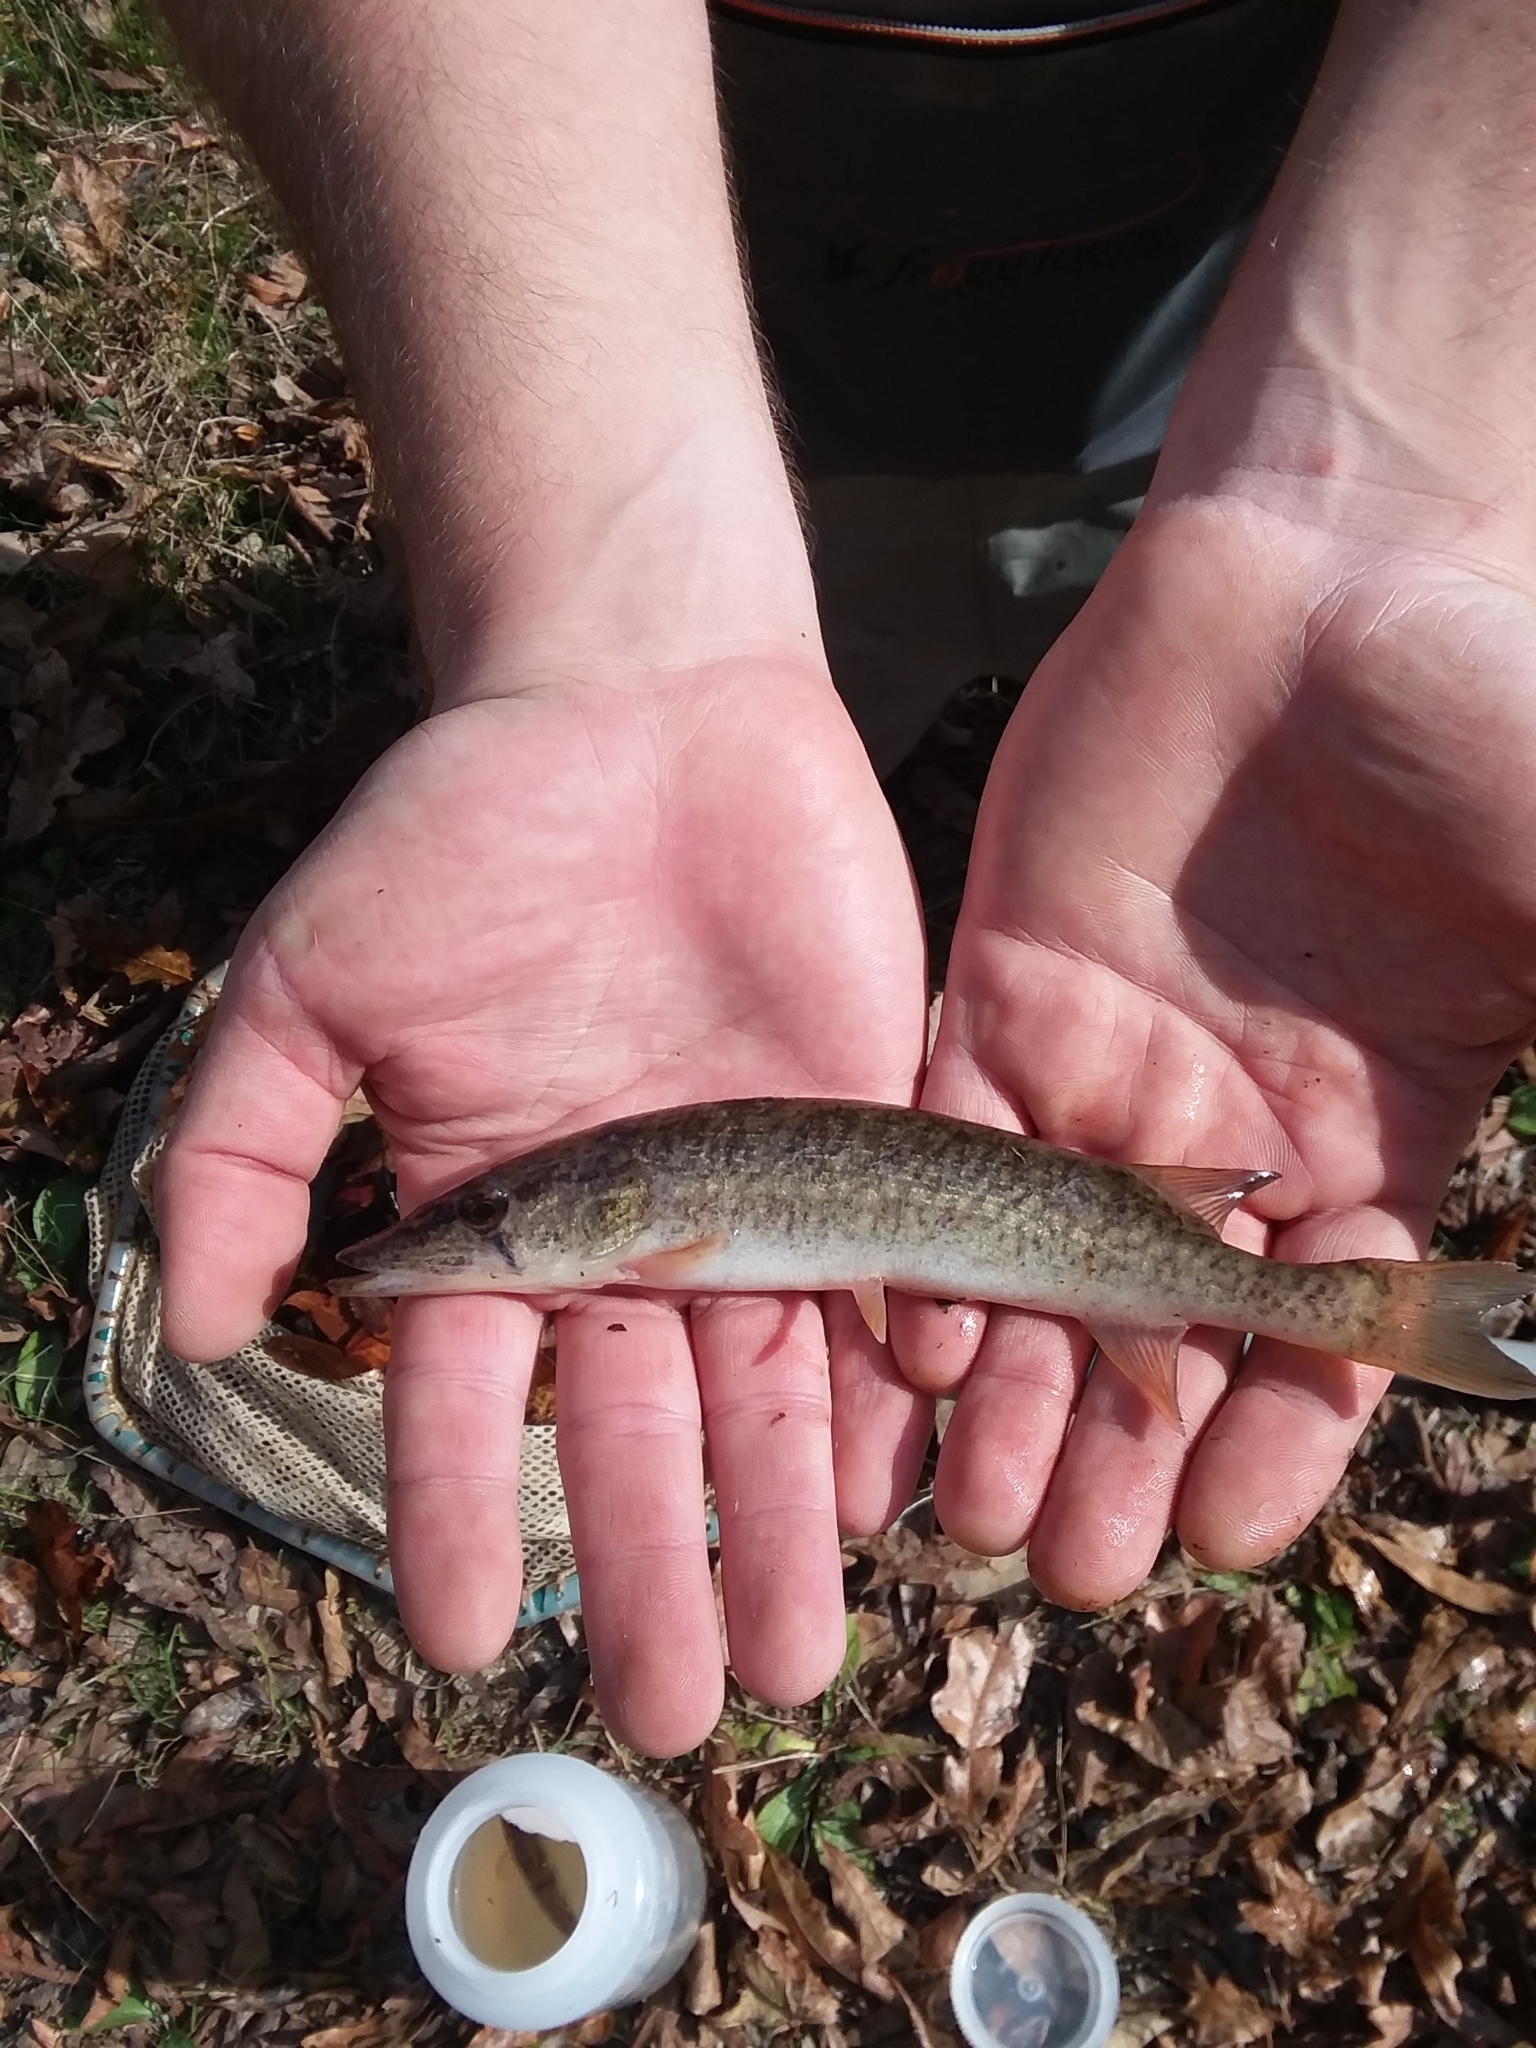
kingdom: Animalia
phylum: Chordata
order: Esociformes
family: Esocidae
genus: Esox
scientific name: Esox americanus
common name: Redfin pickerel
